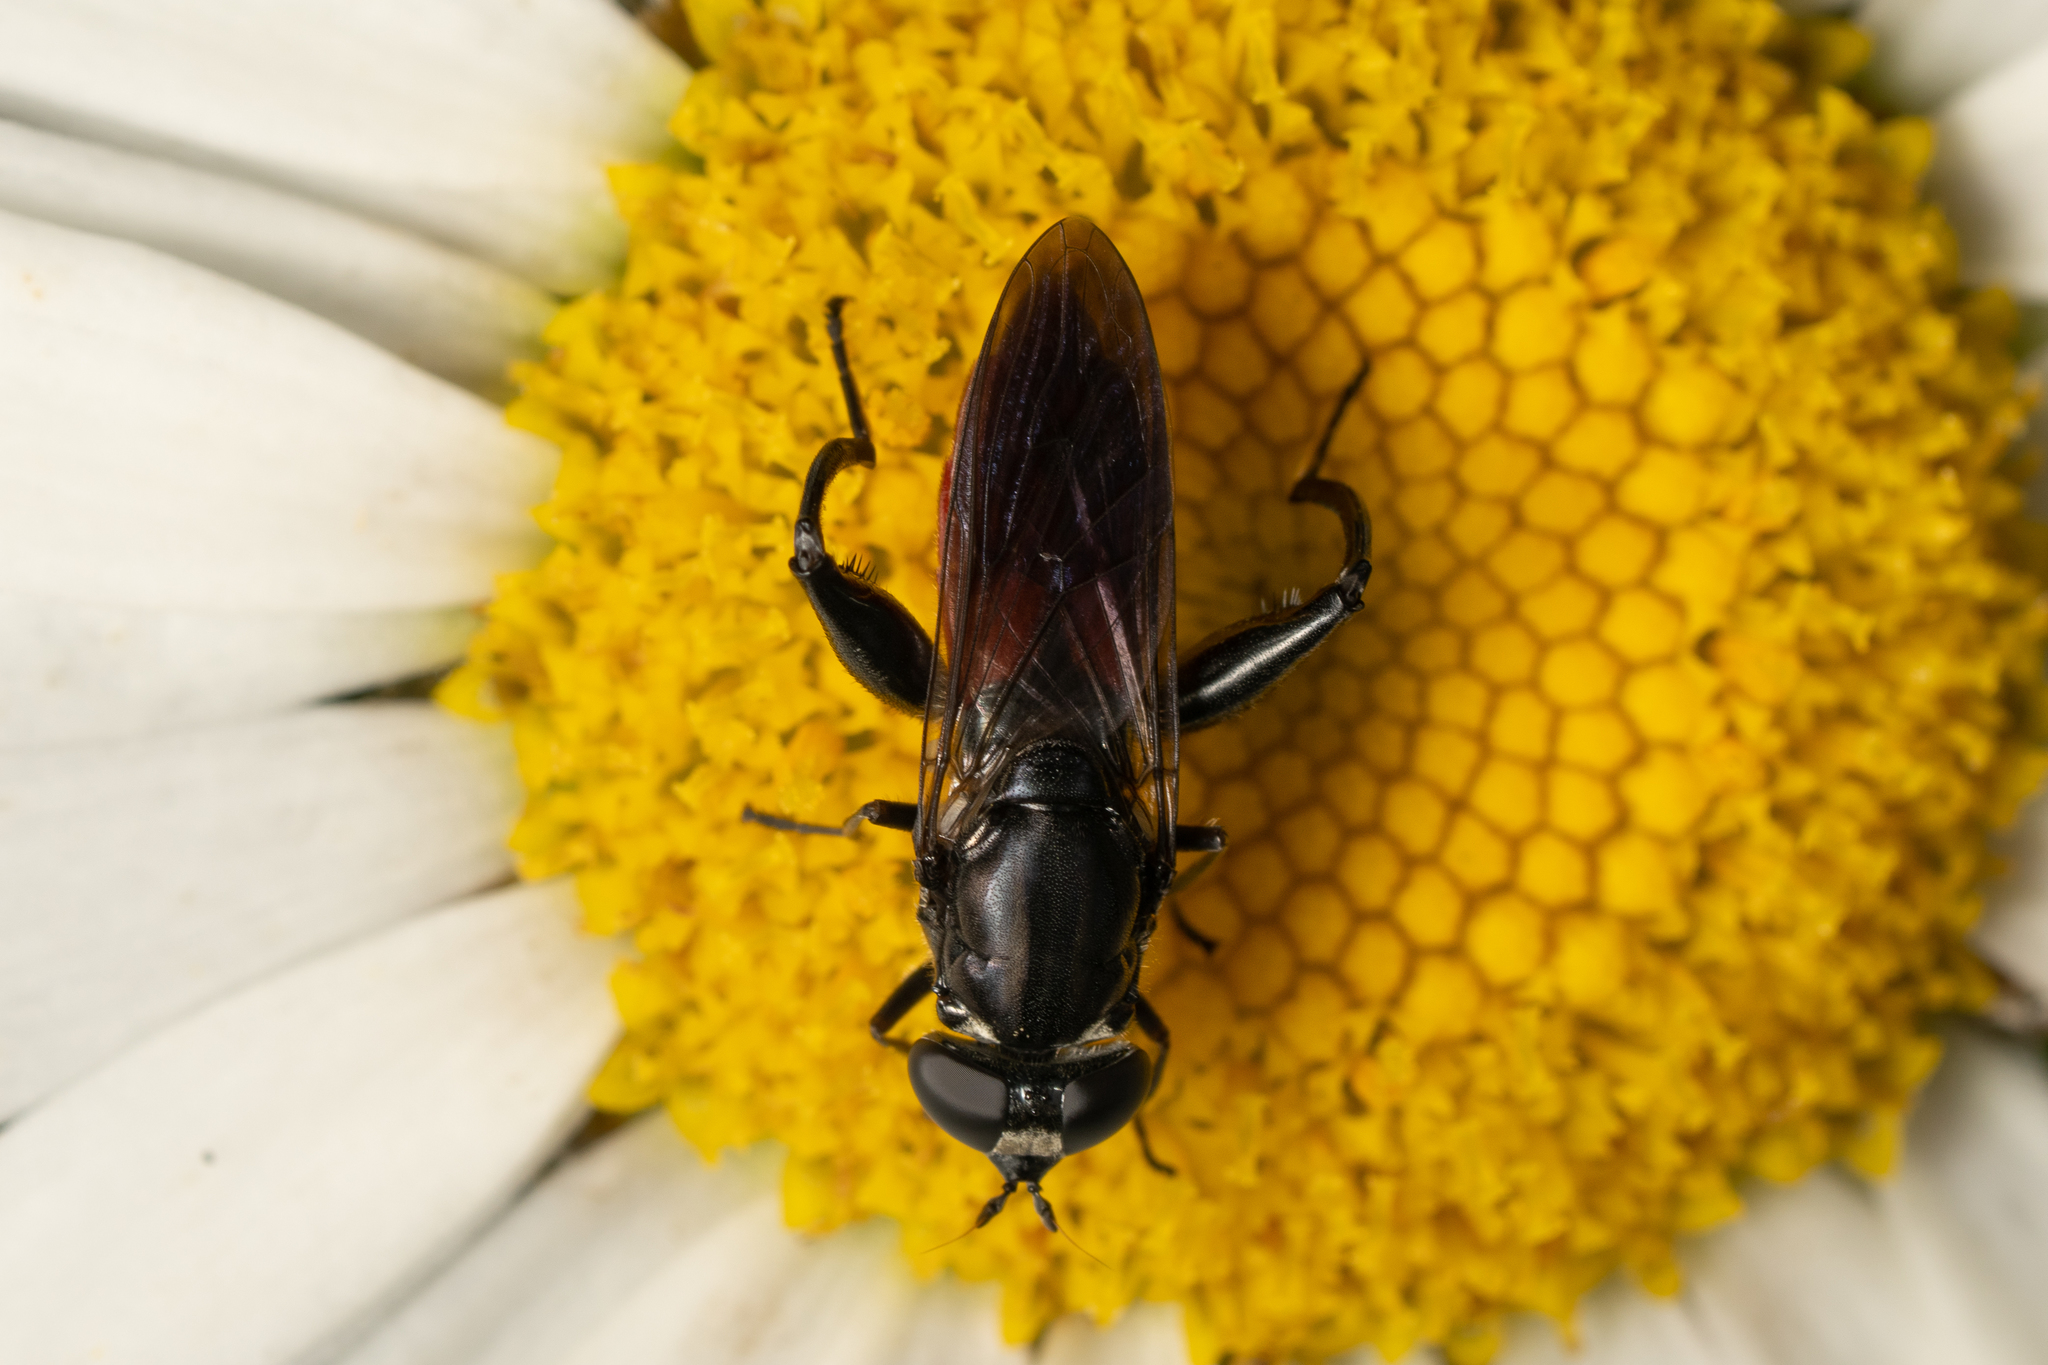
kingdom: Animalia
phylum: Arthropoda
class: Insecta
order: Diptera
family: Syrphidae
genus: Chalcosyrphus
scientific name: Chalcosyrphus piger
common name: Short-haired leafwalker
